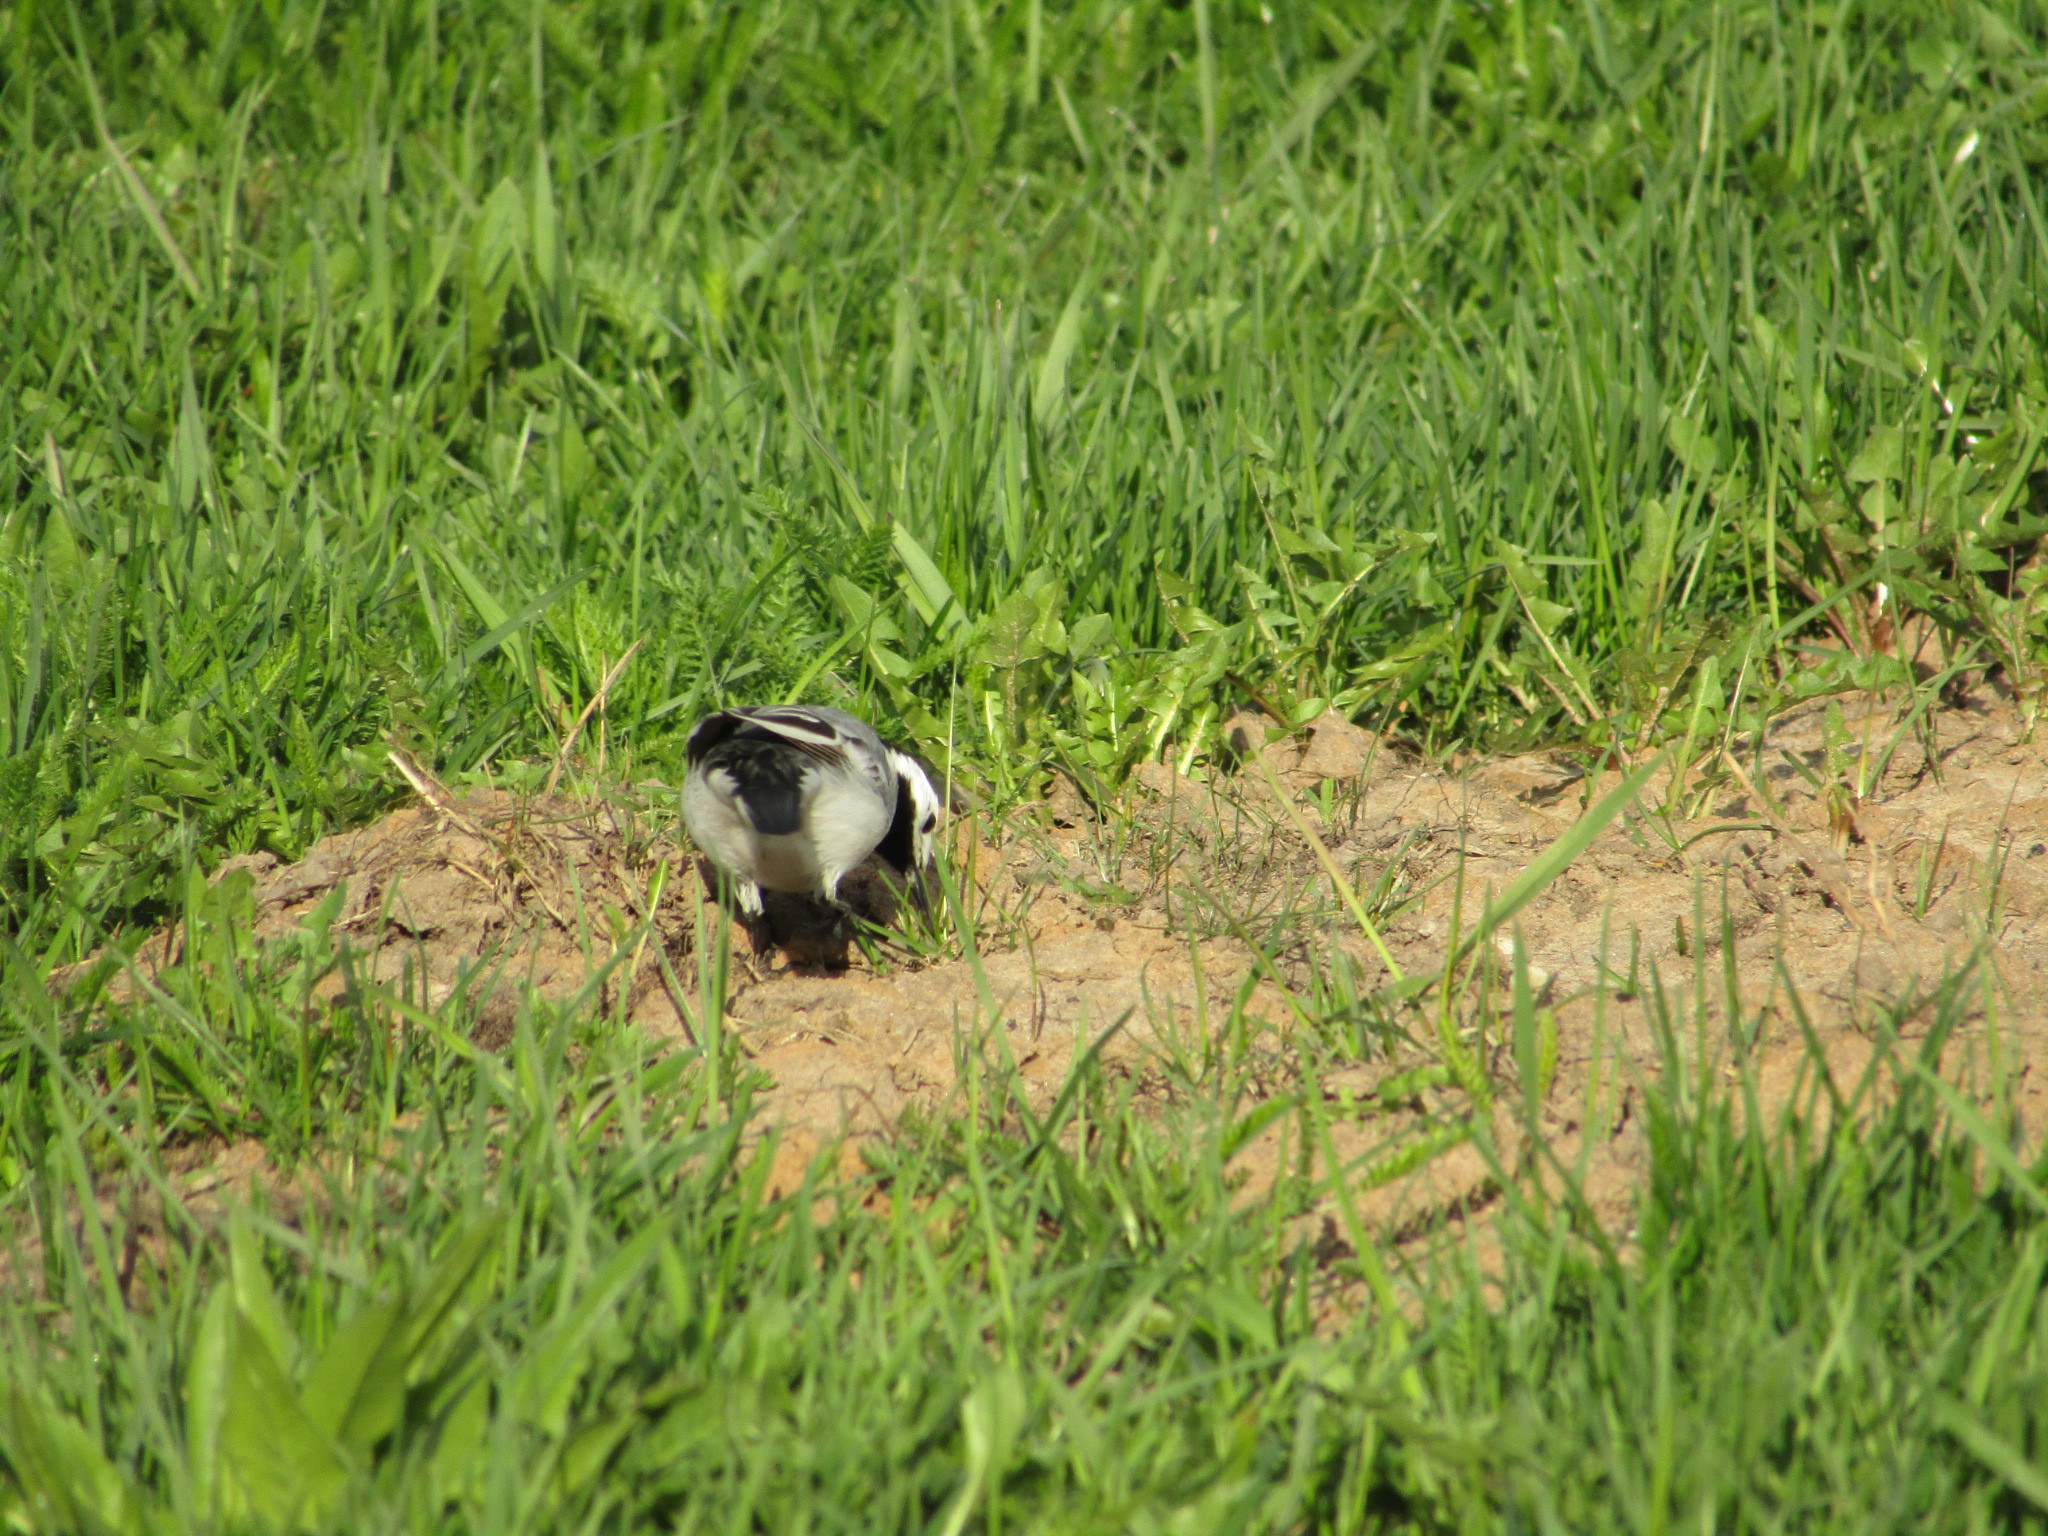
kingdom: Animalia
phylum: Chordata
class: Aves
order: Passeriformes
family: Motacillidae
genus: Motacilla
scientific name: Motacilla alba
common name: White wagtail
